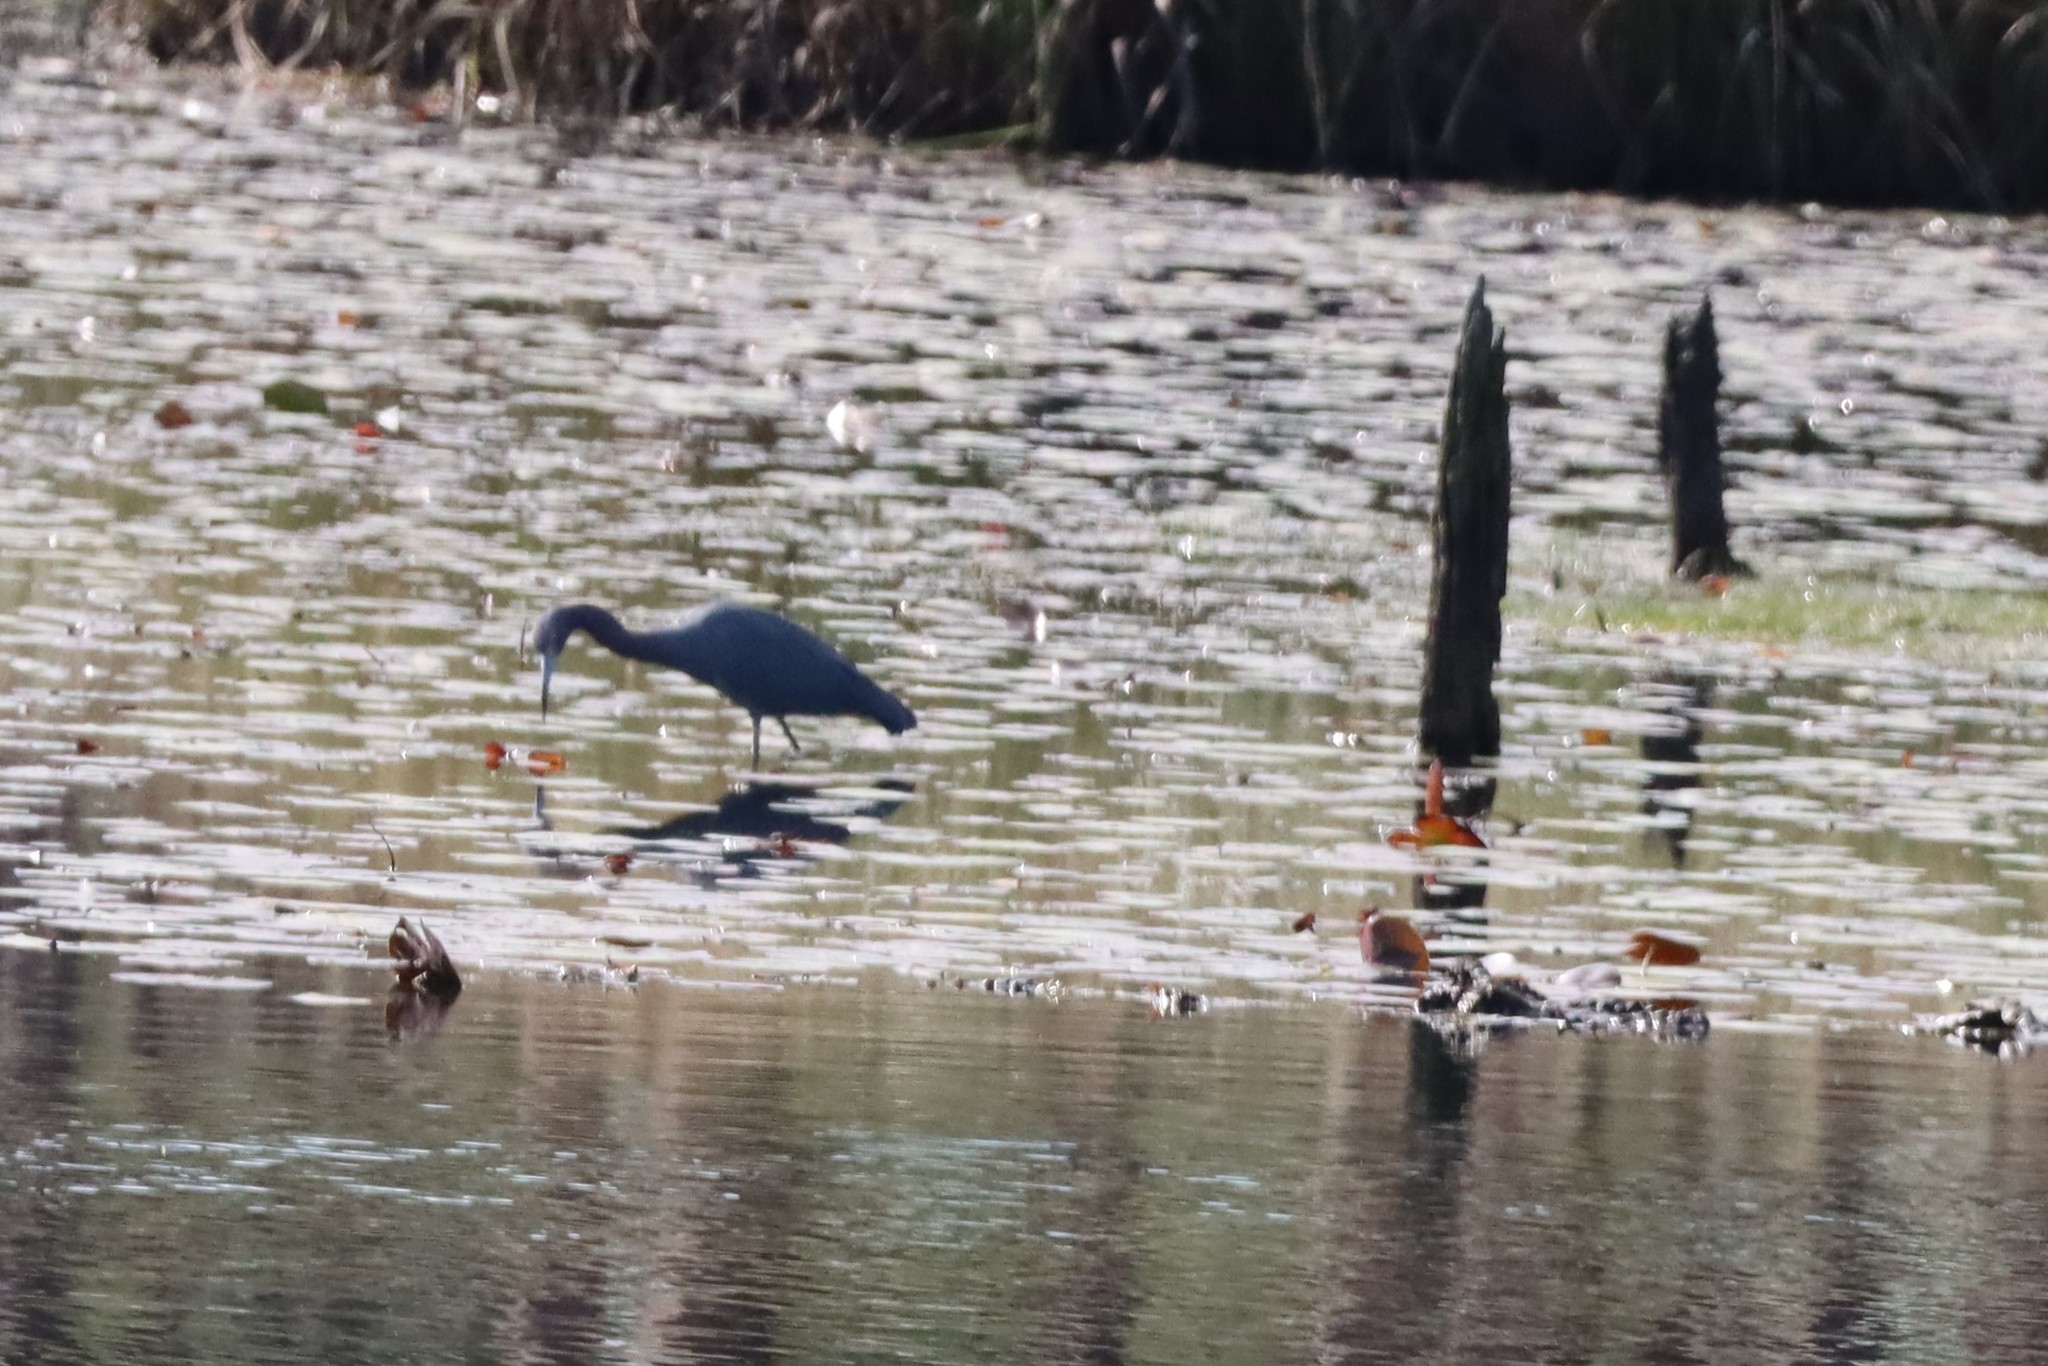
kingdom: Animalia
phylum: Chordata
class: Aves
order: Pelecaniformes
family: Ardeidae
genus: Egretta
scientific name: Egretta caerulea
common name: Little blue heron
